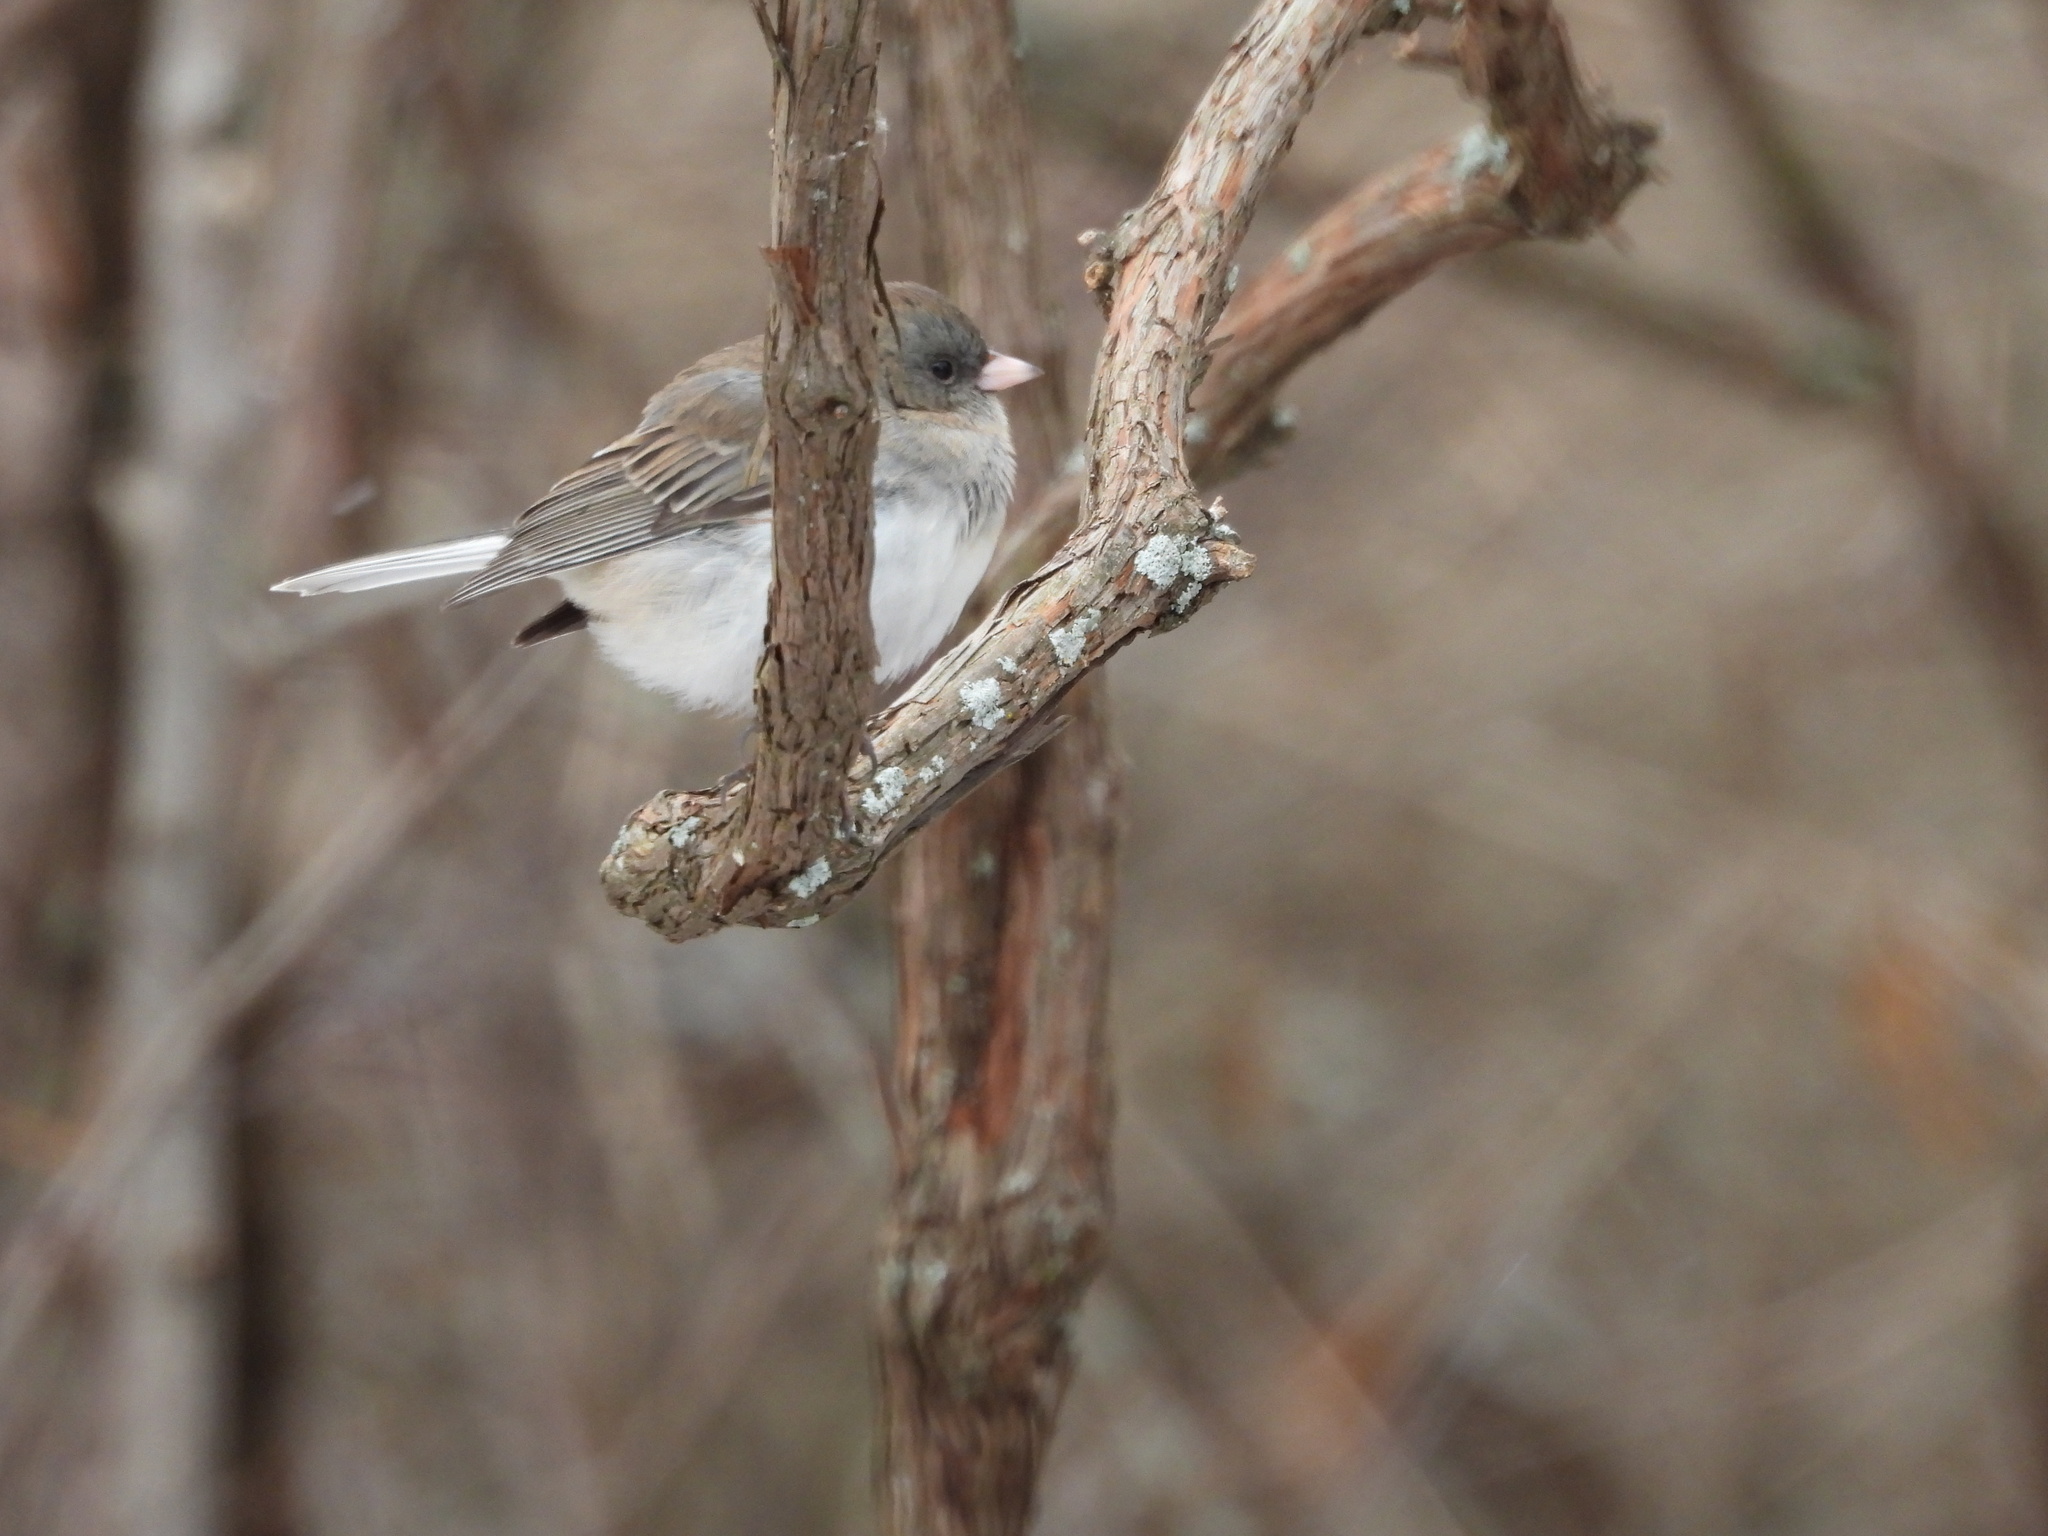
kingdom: Animalia
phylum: Chordata
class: Aves
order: Passeriformes
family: Passerellidae
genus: Junco
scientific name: Junco hyemalis
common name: Dark-eyed junco
